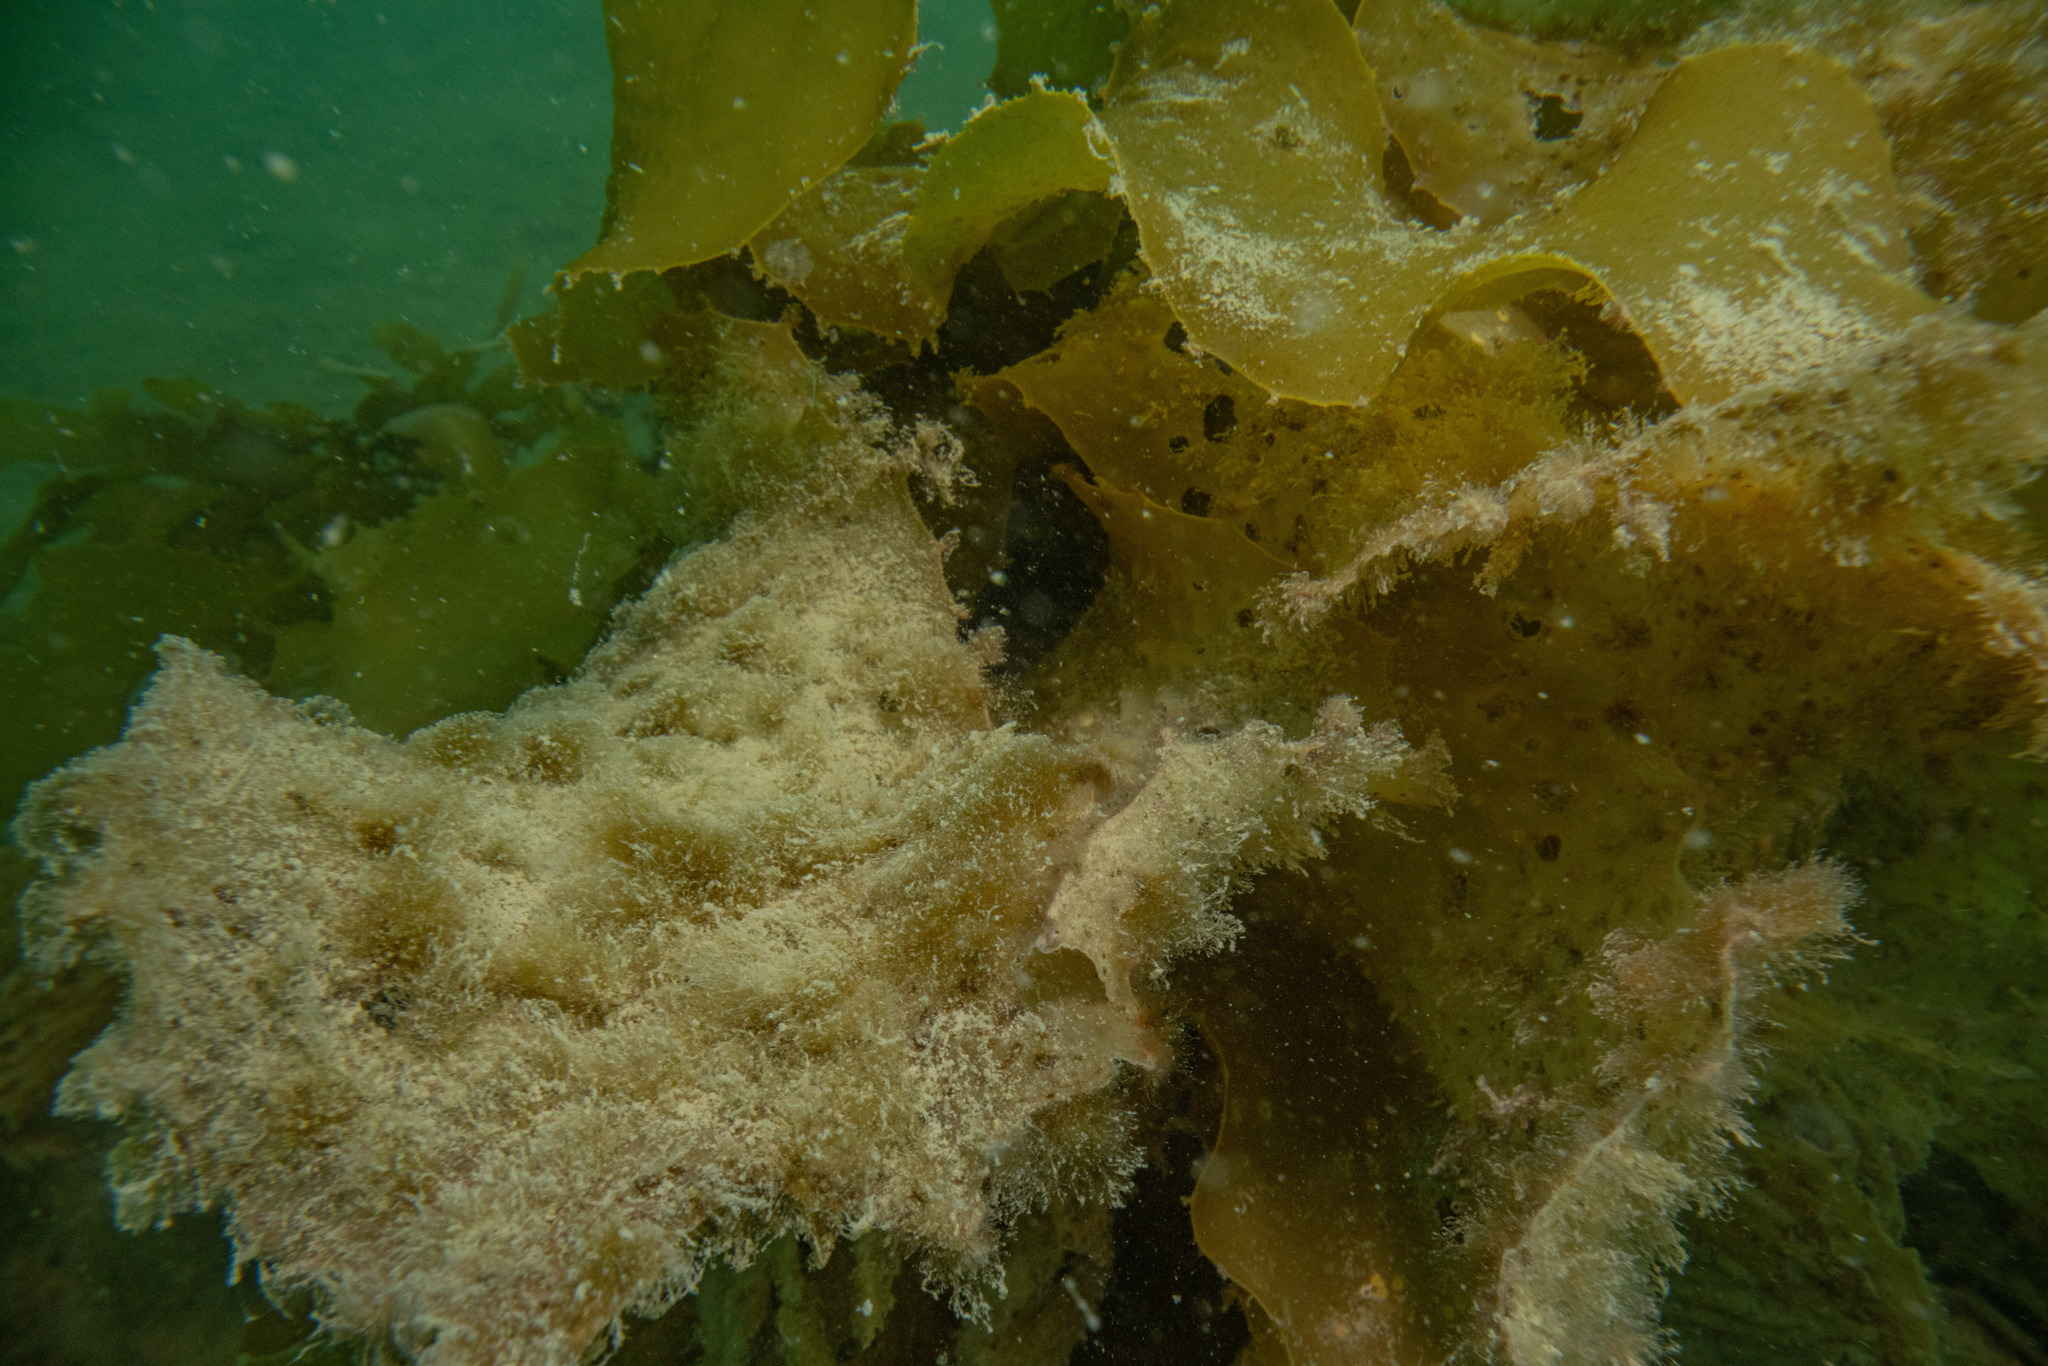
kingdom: Chromista
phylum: Ochrophyta
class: Phaeophyceae
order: Laminariales
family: Lessoniaceae
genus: Ecklonia
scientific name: Ecklonia radiata
